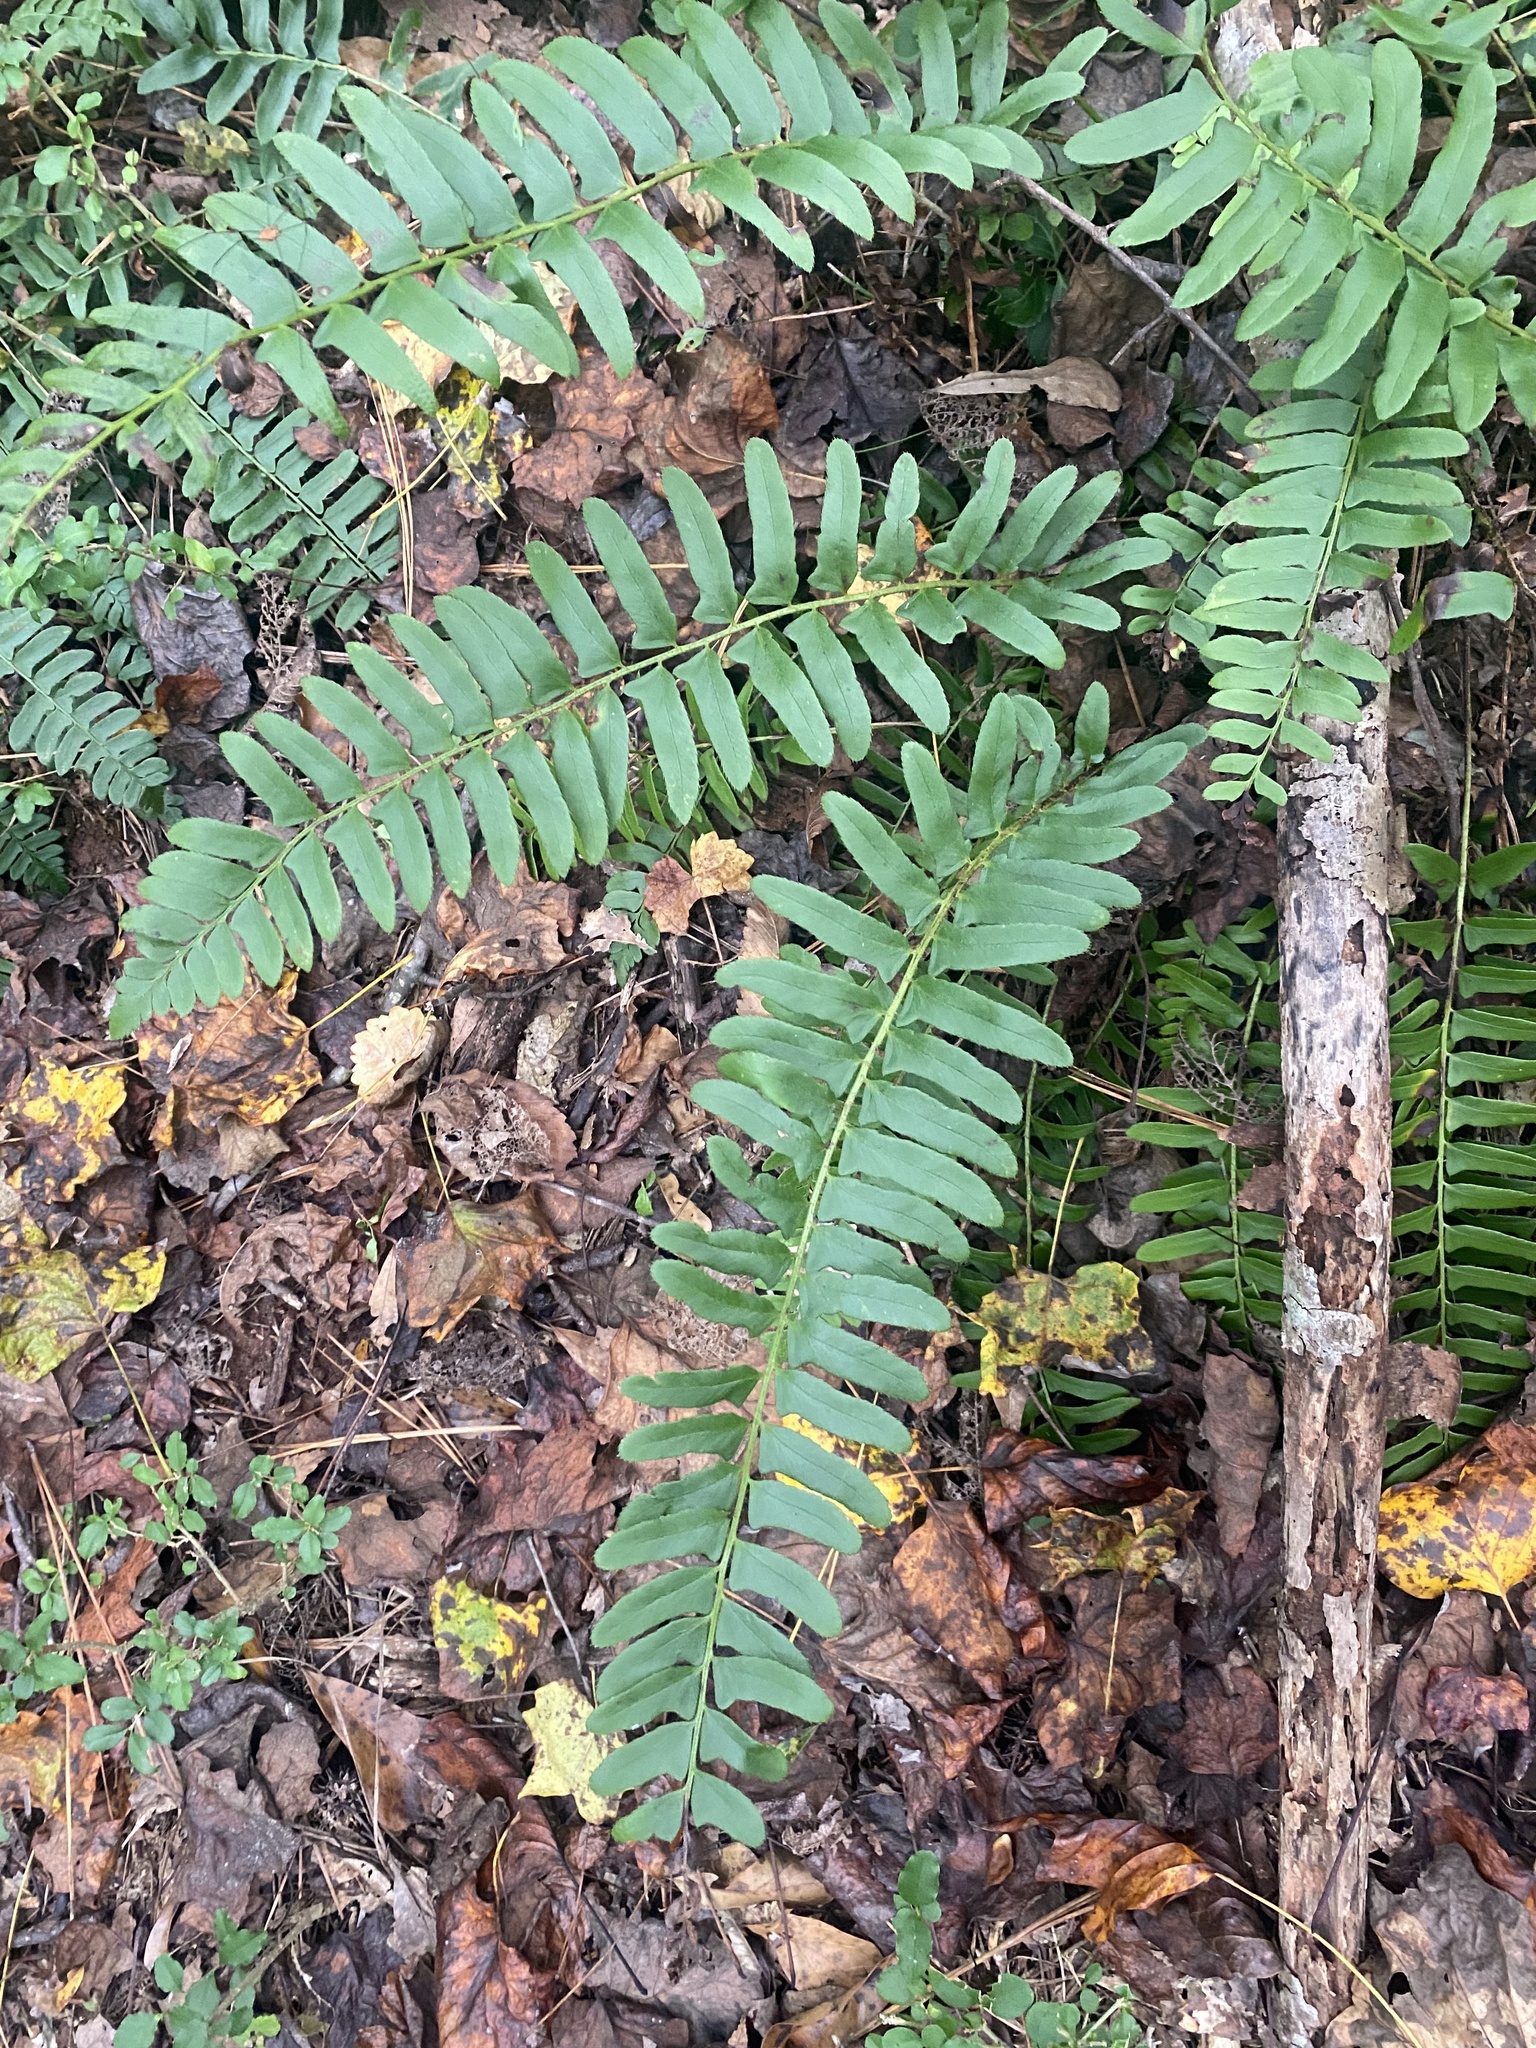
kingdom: Plantae
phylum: Tracheophyta
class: Polypodiopsida
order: Polypodiales
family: Dryopteridaceae
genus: Polystichum
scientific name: Polystichum acrostichoides
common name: Christmas fern
